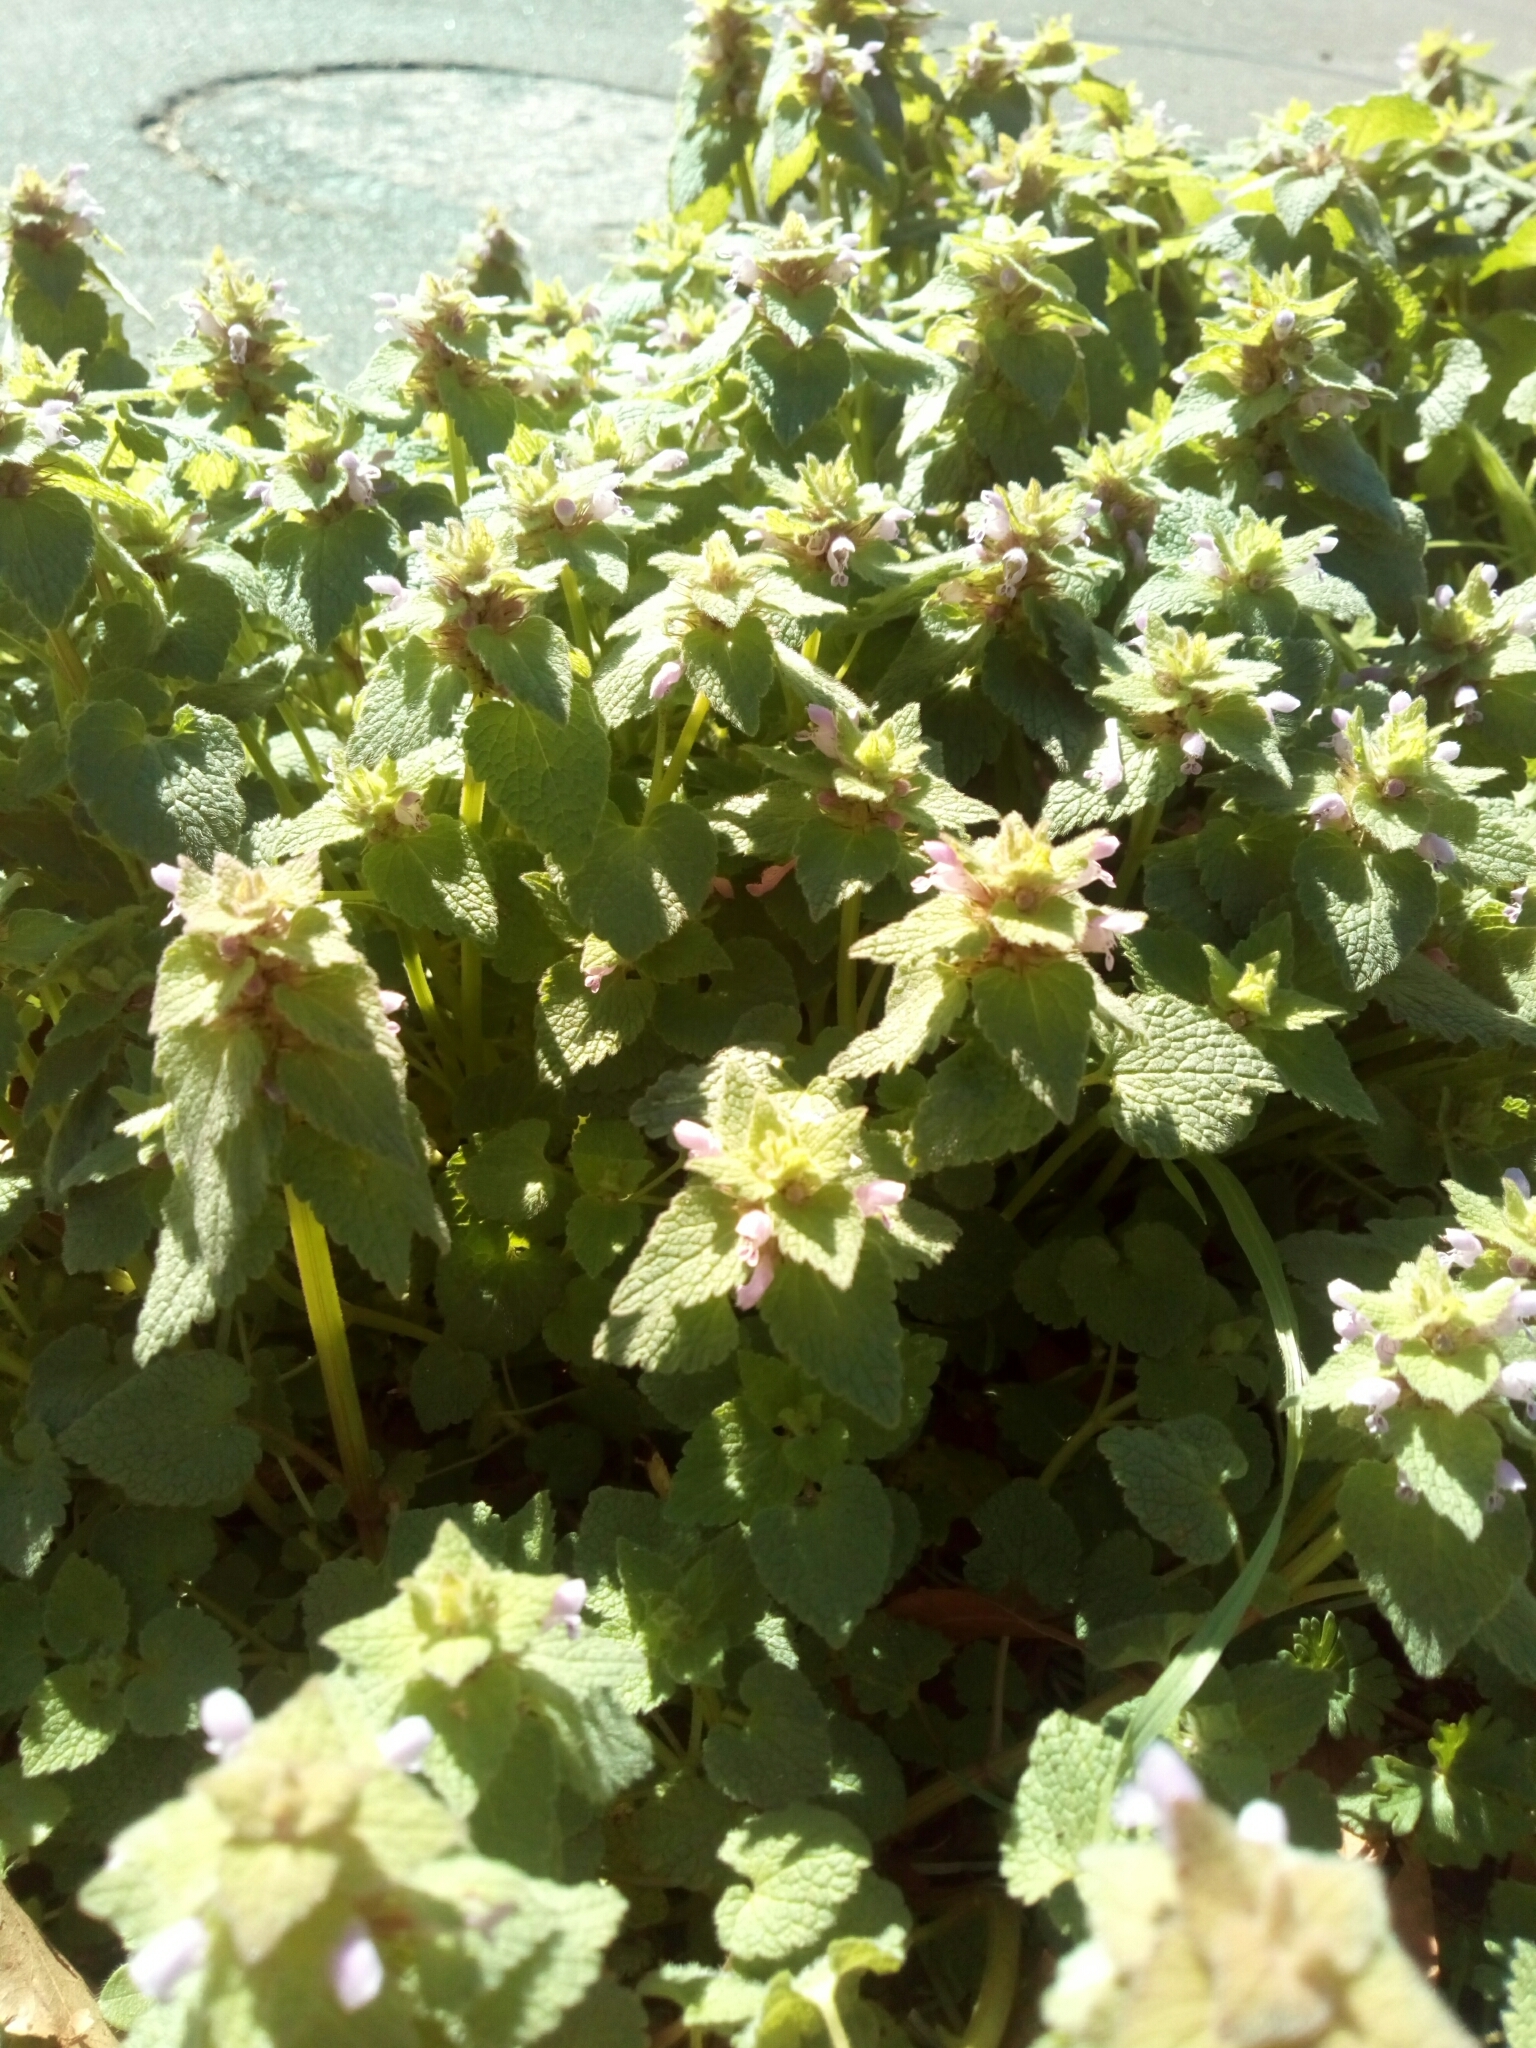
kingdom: Plantae
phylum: Tracheophyta
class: Magnoliopsida
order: Lamiales
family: Lamiaceae
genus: Lamium
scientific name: Lamium purpureum
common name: Red dead-nettle
